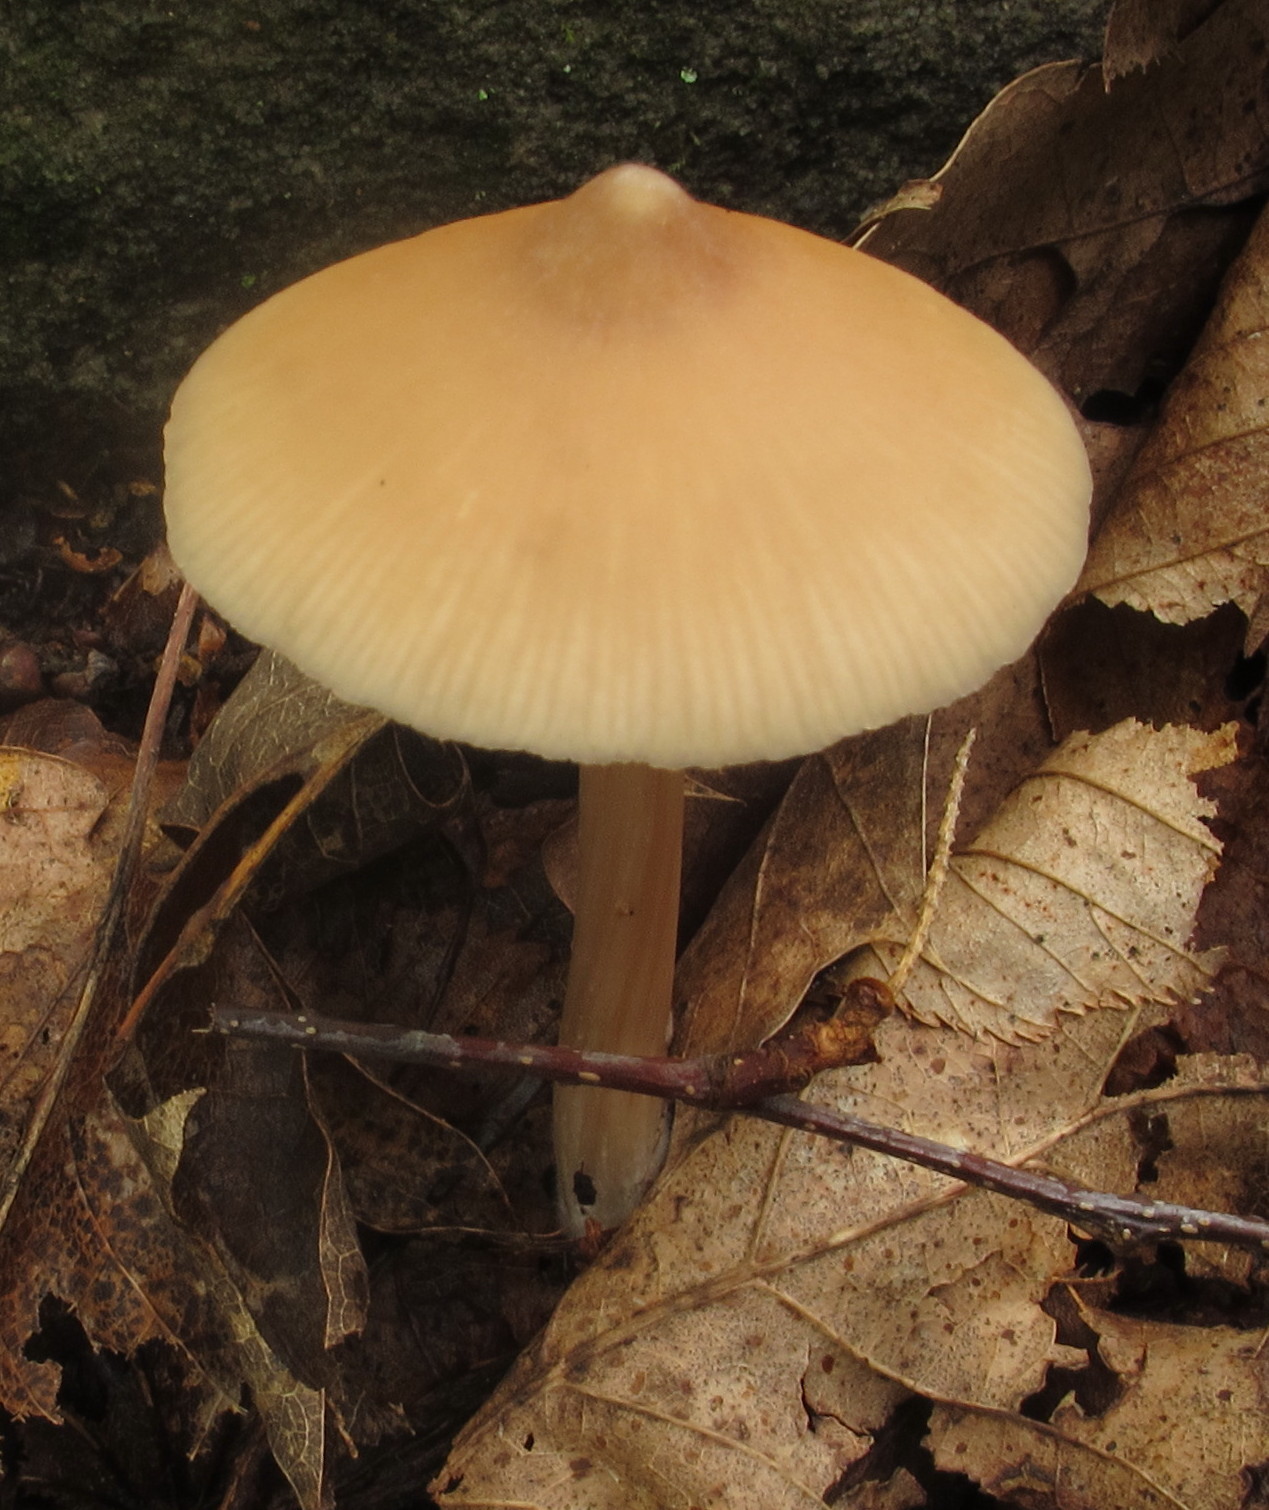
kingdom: Fungi
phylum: Basidiomycota
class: Agaricomycetes
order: Agaricales
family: Entolomataceae
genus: Entoloma
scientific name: Entoloma strictius
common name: Straight-stalked entoloma
